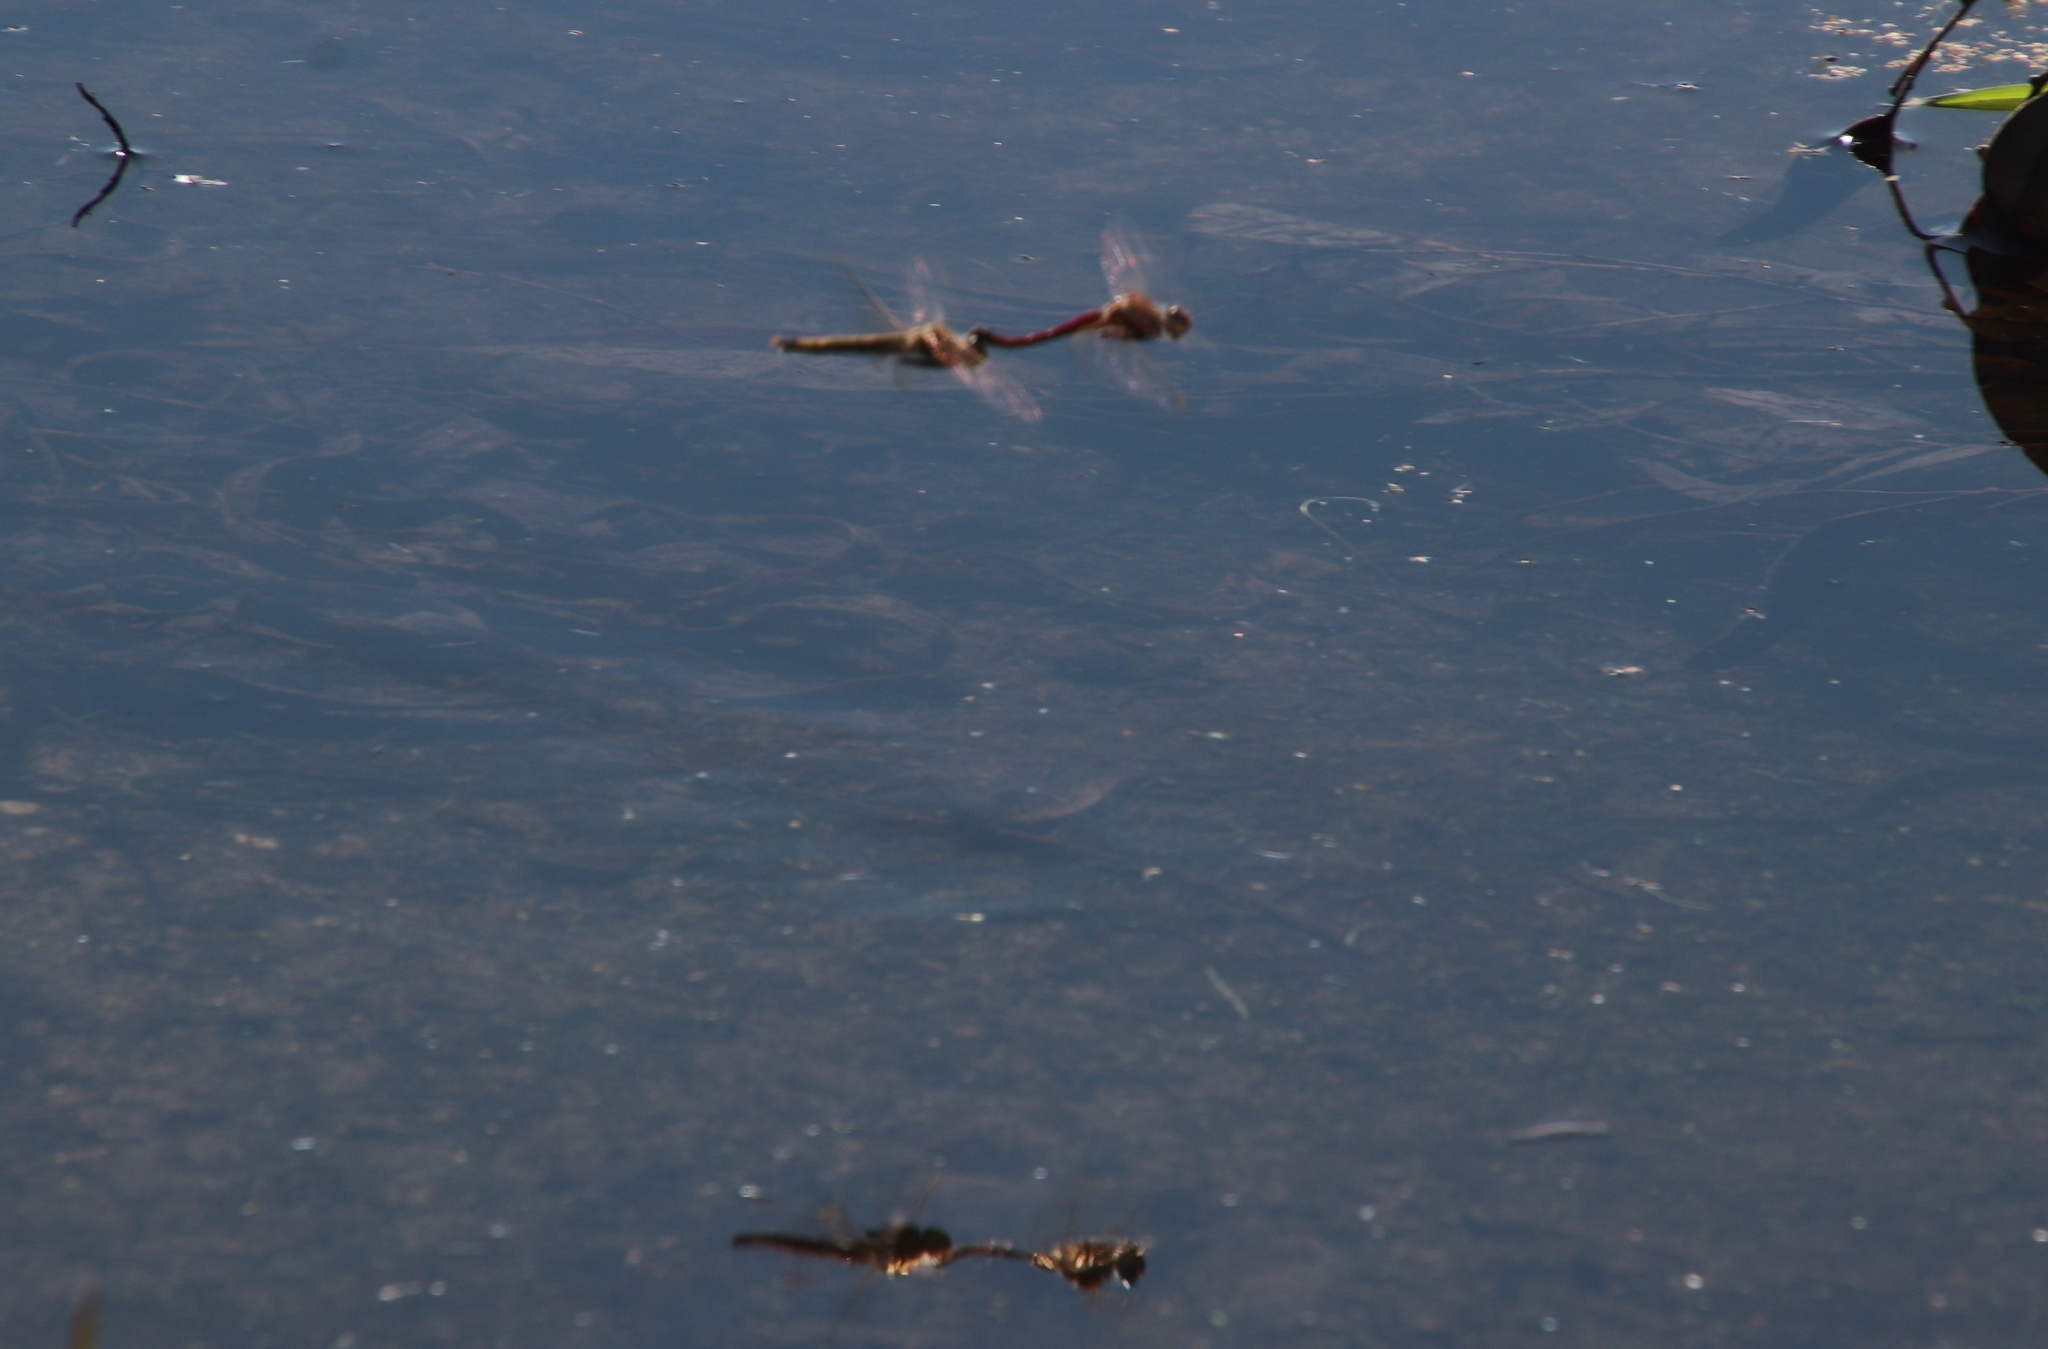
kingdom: Animalia
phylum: Arthropoda
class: Insecta
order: Odonata
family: Libellulidae
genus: Sympetrum
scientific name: Sympetrum fonscolombii
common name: Red-veined darter
